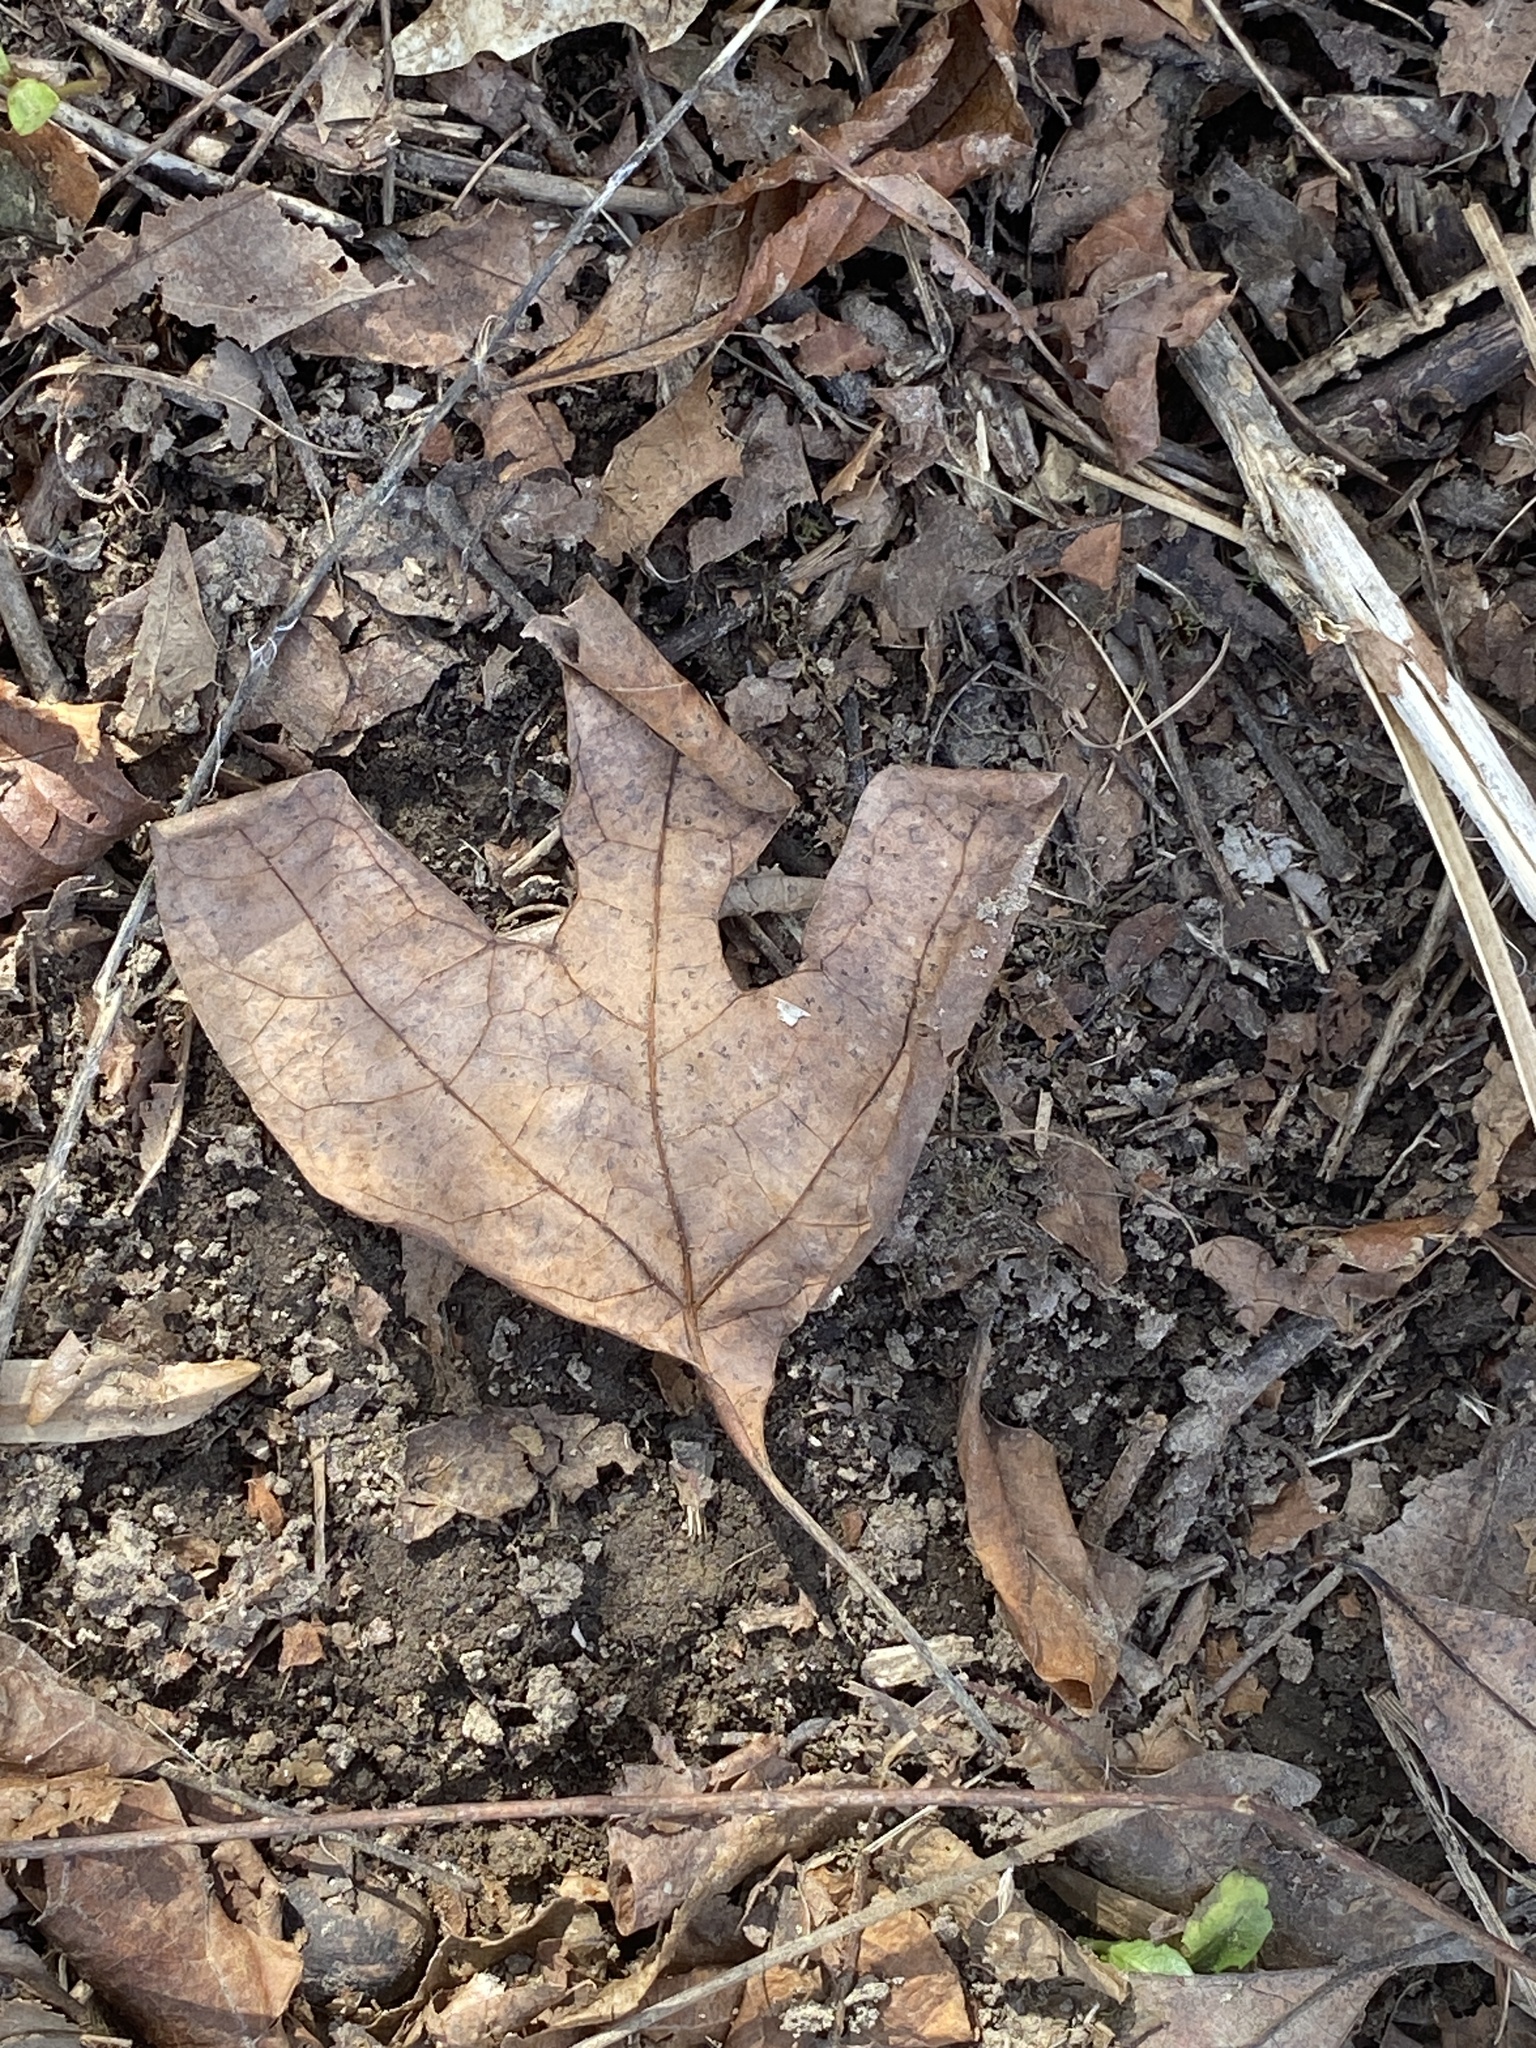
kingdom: Plantae
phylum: Tracheophyta
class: Magnoliopsida
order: Laurales
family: Lauraceae
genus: Sassafras
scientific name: Sassafras albidum
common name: Sassafras
